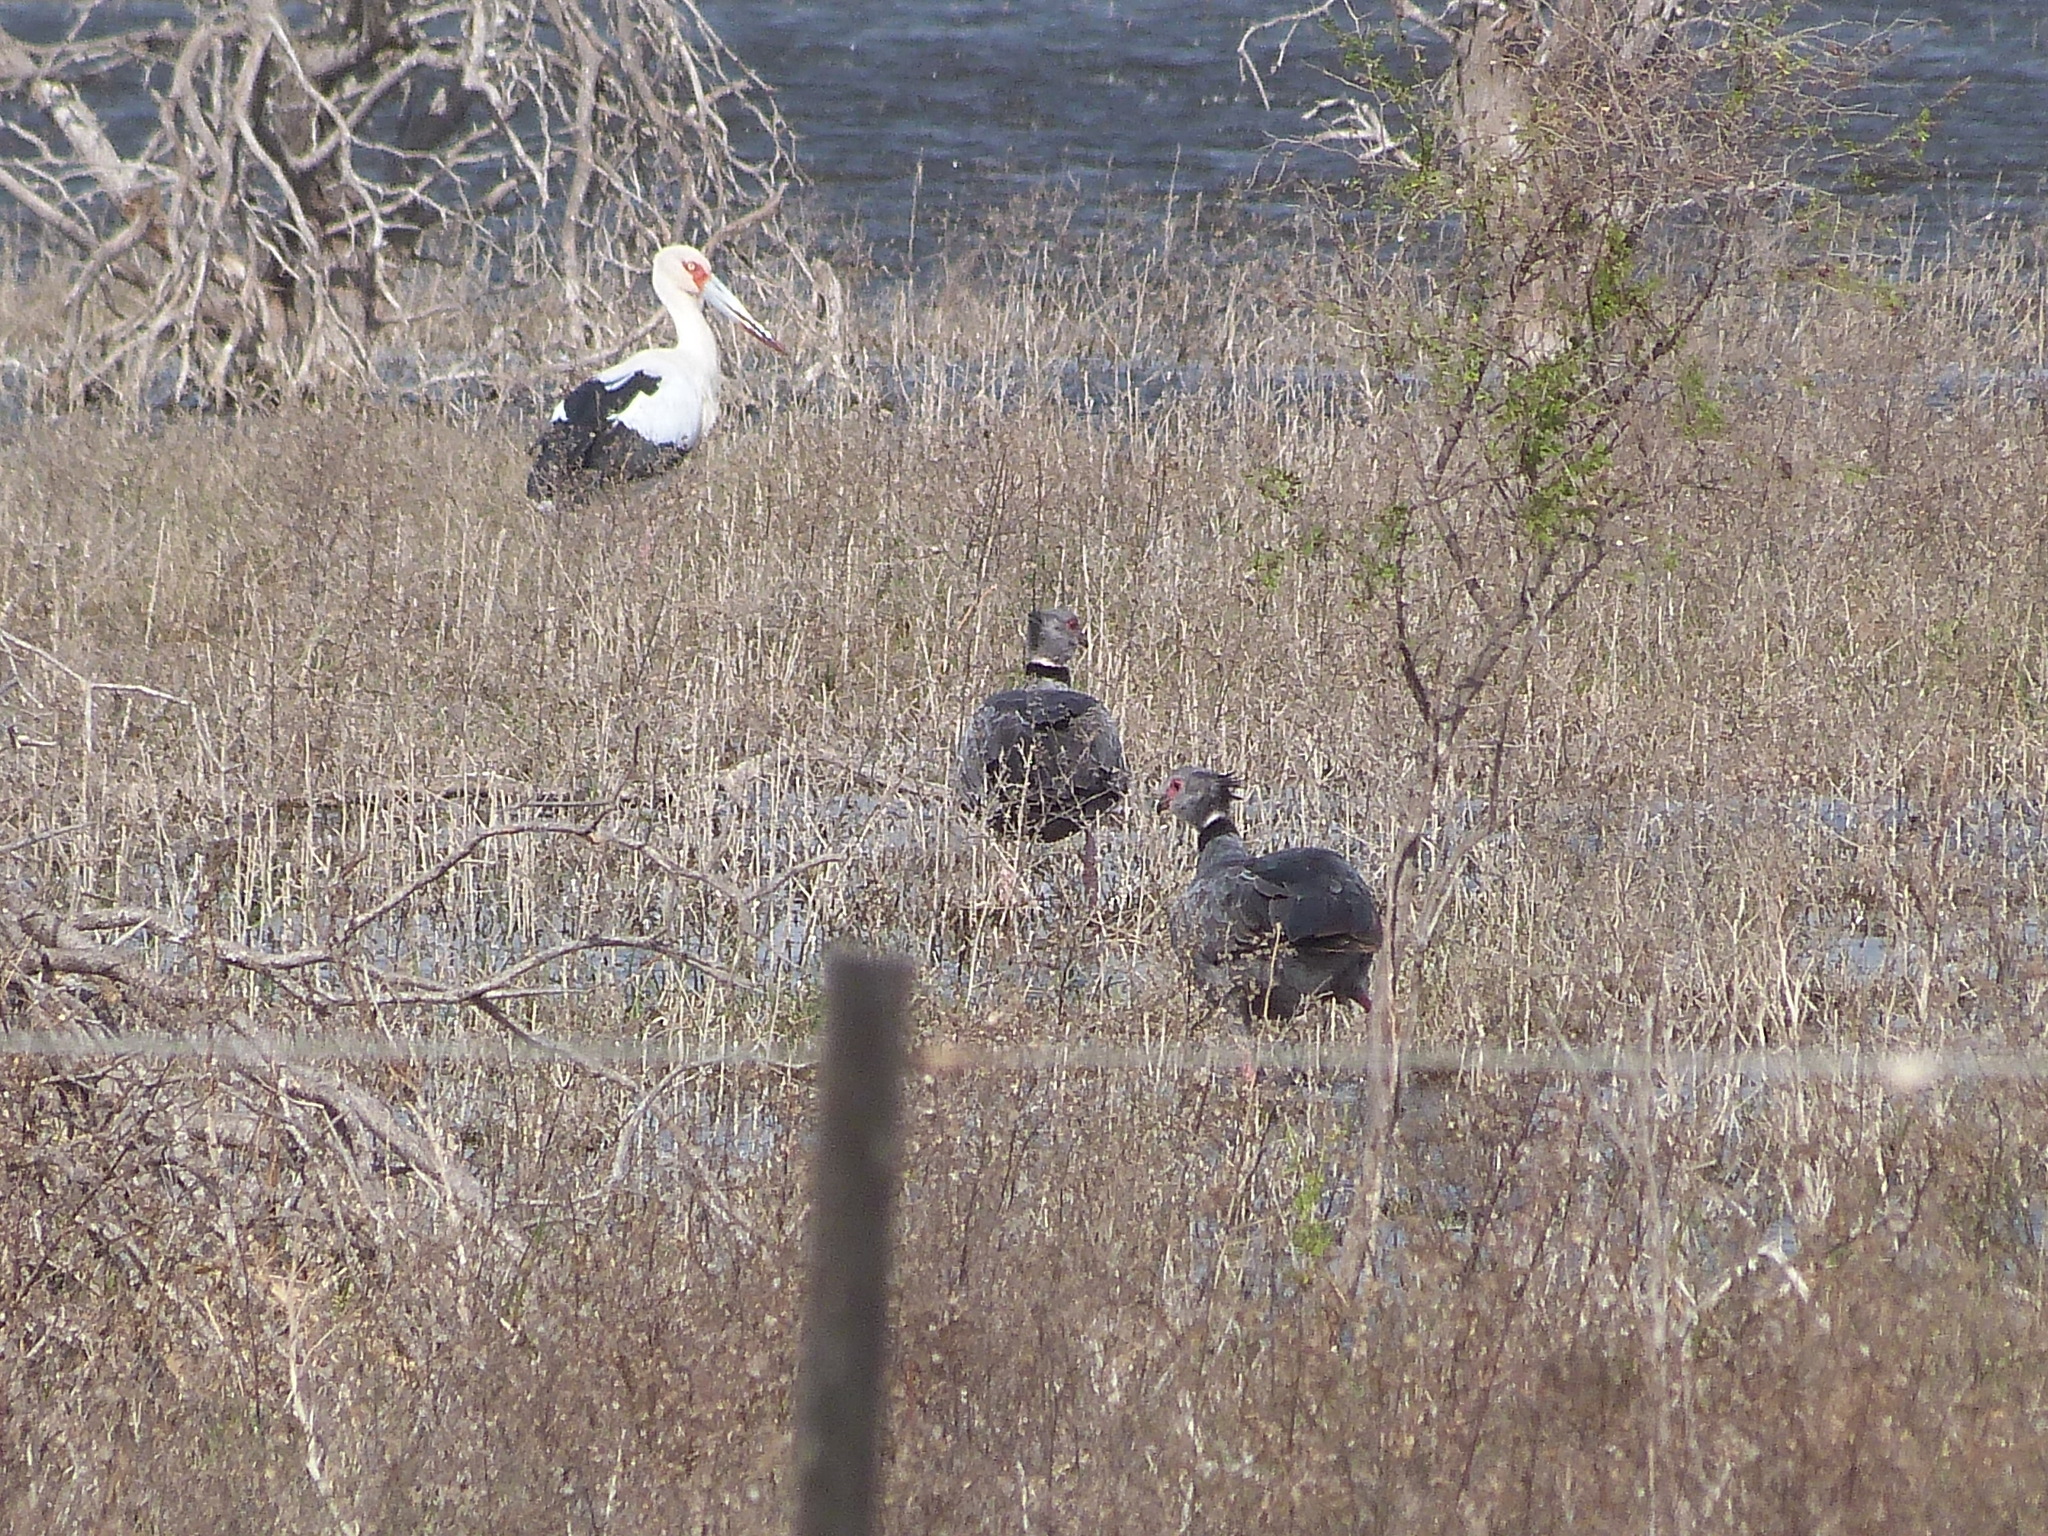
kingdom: Animalia
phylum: Chordata
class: Aves
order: Anseriformes
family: Anhimidae
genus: Chauna
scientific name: Chauna torquata
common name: Southern screamer
